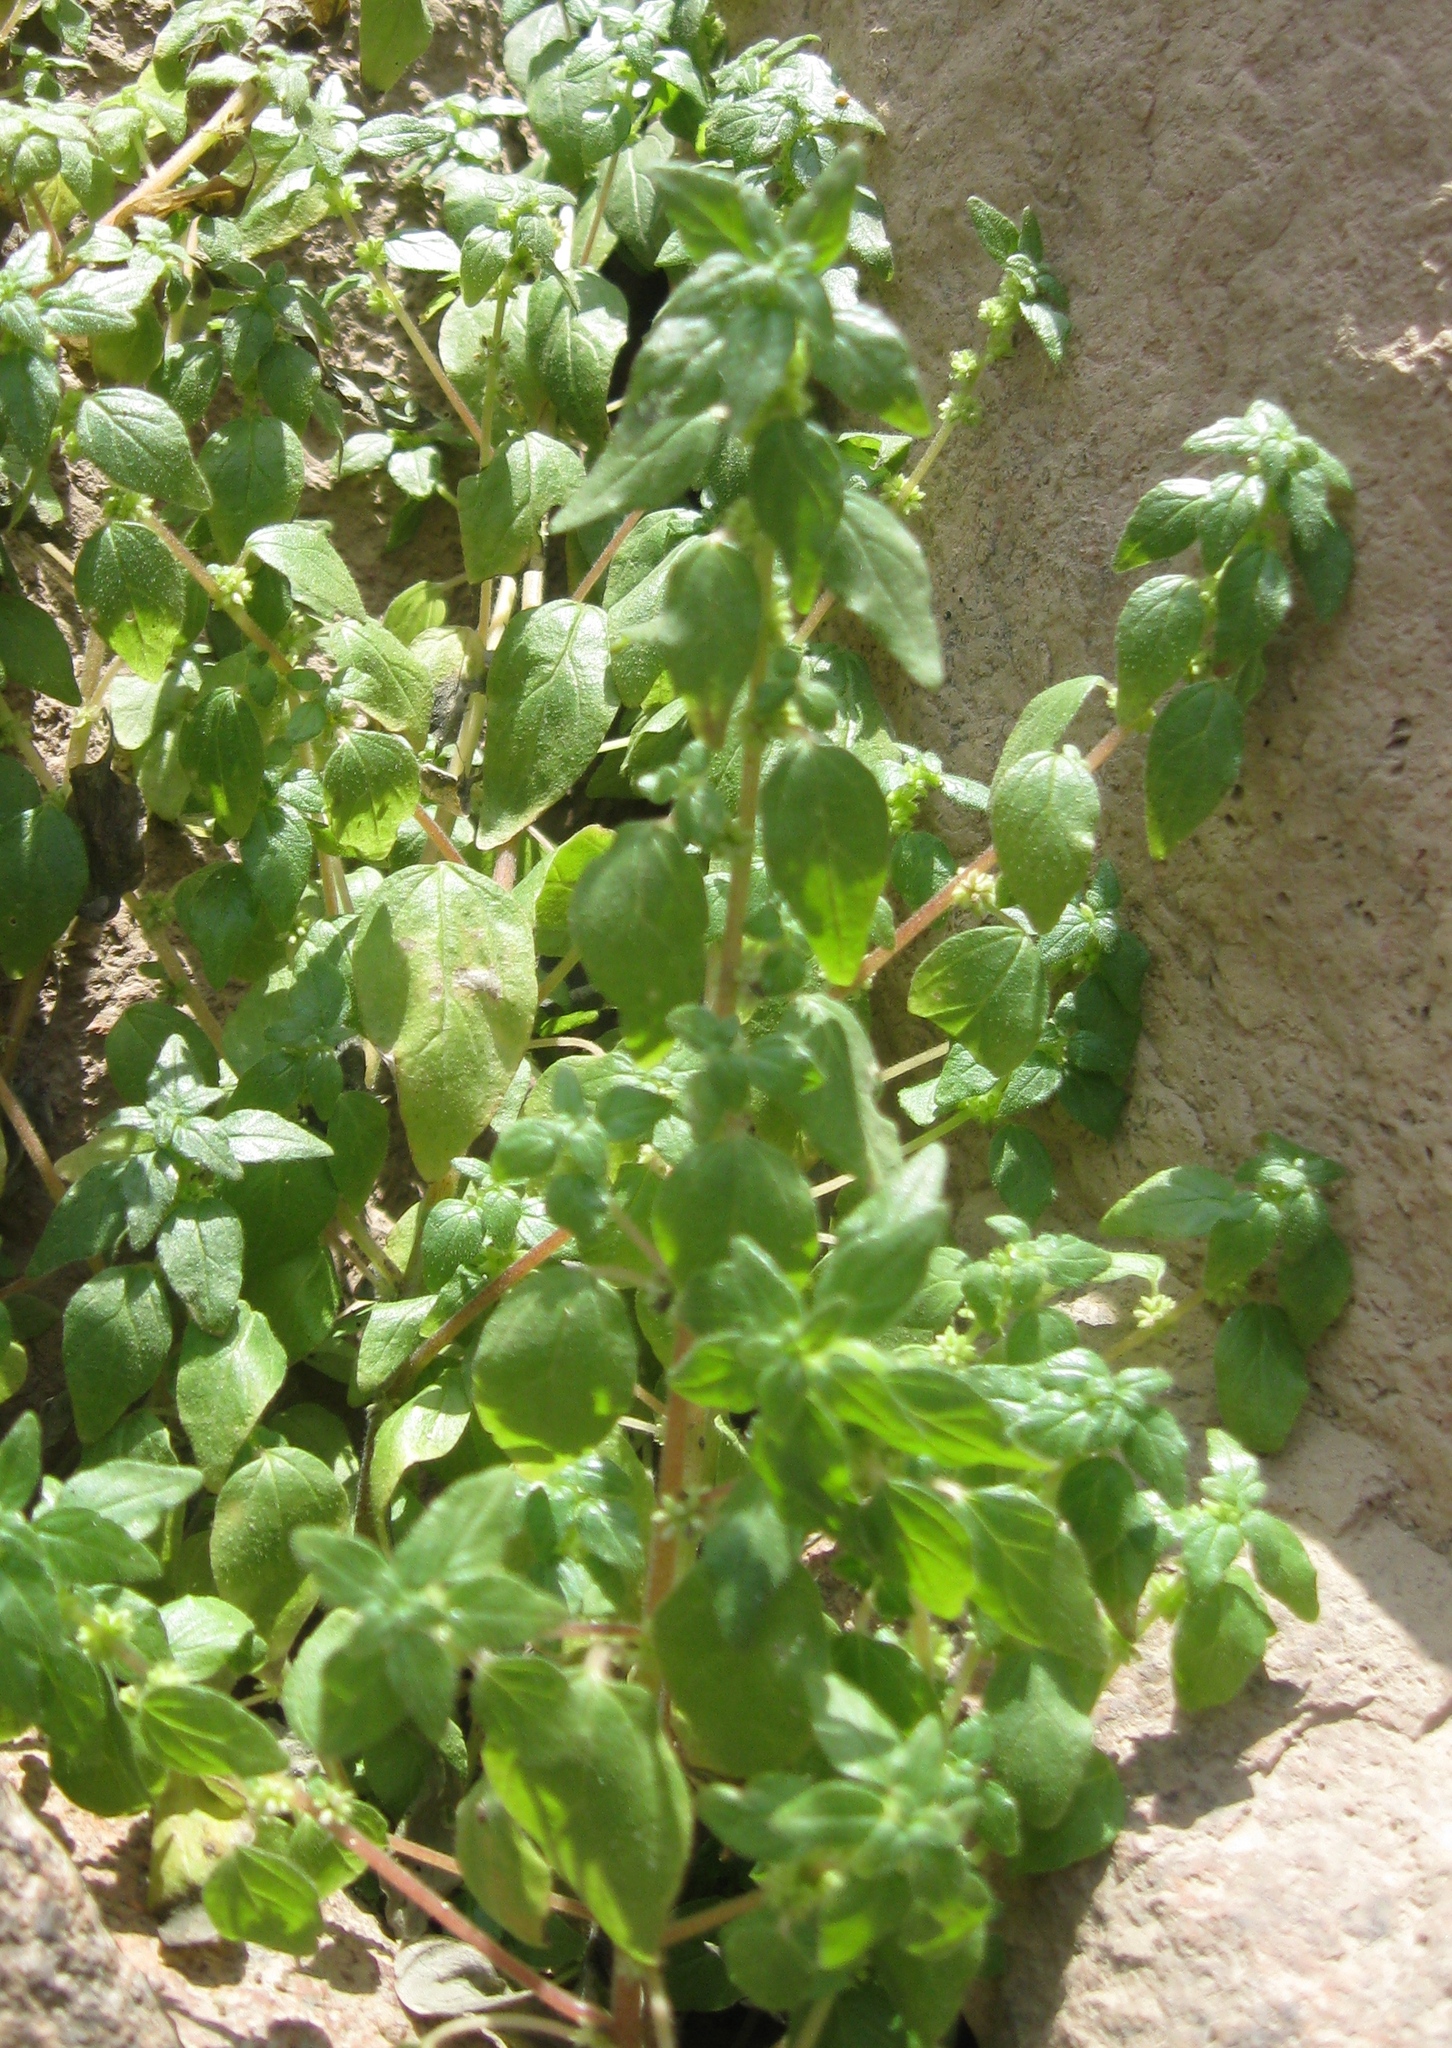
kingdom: Plantae
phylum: Tracheophyta
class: Magnoliopsida
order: Rosales
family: Urticaceae
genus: Parietaria
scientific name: Parietaria debilis
